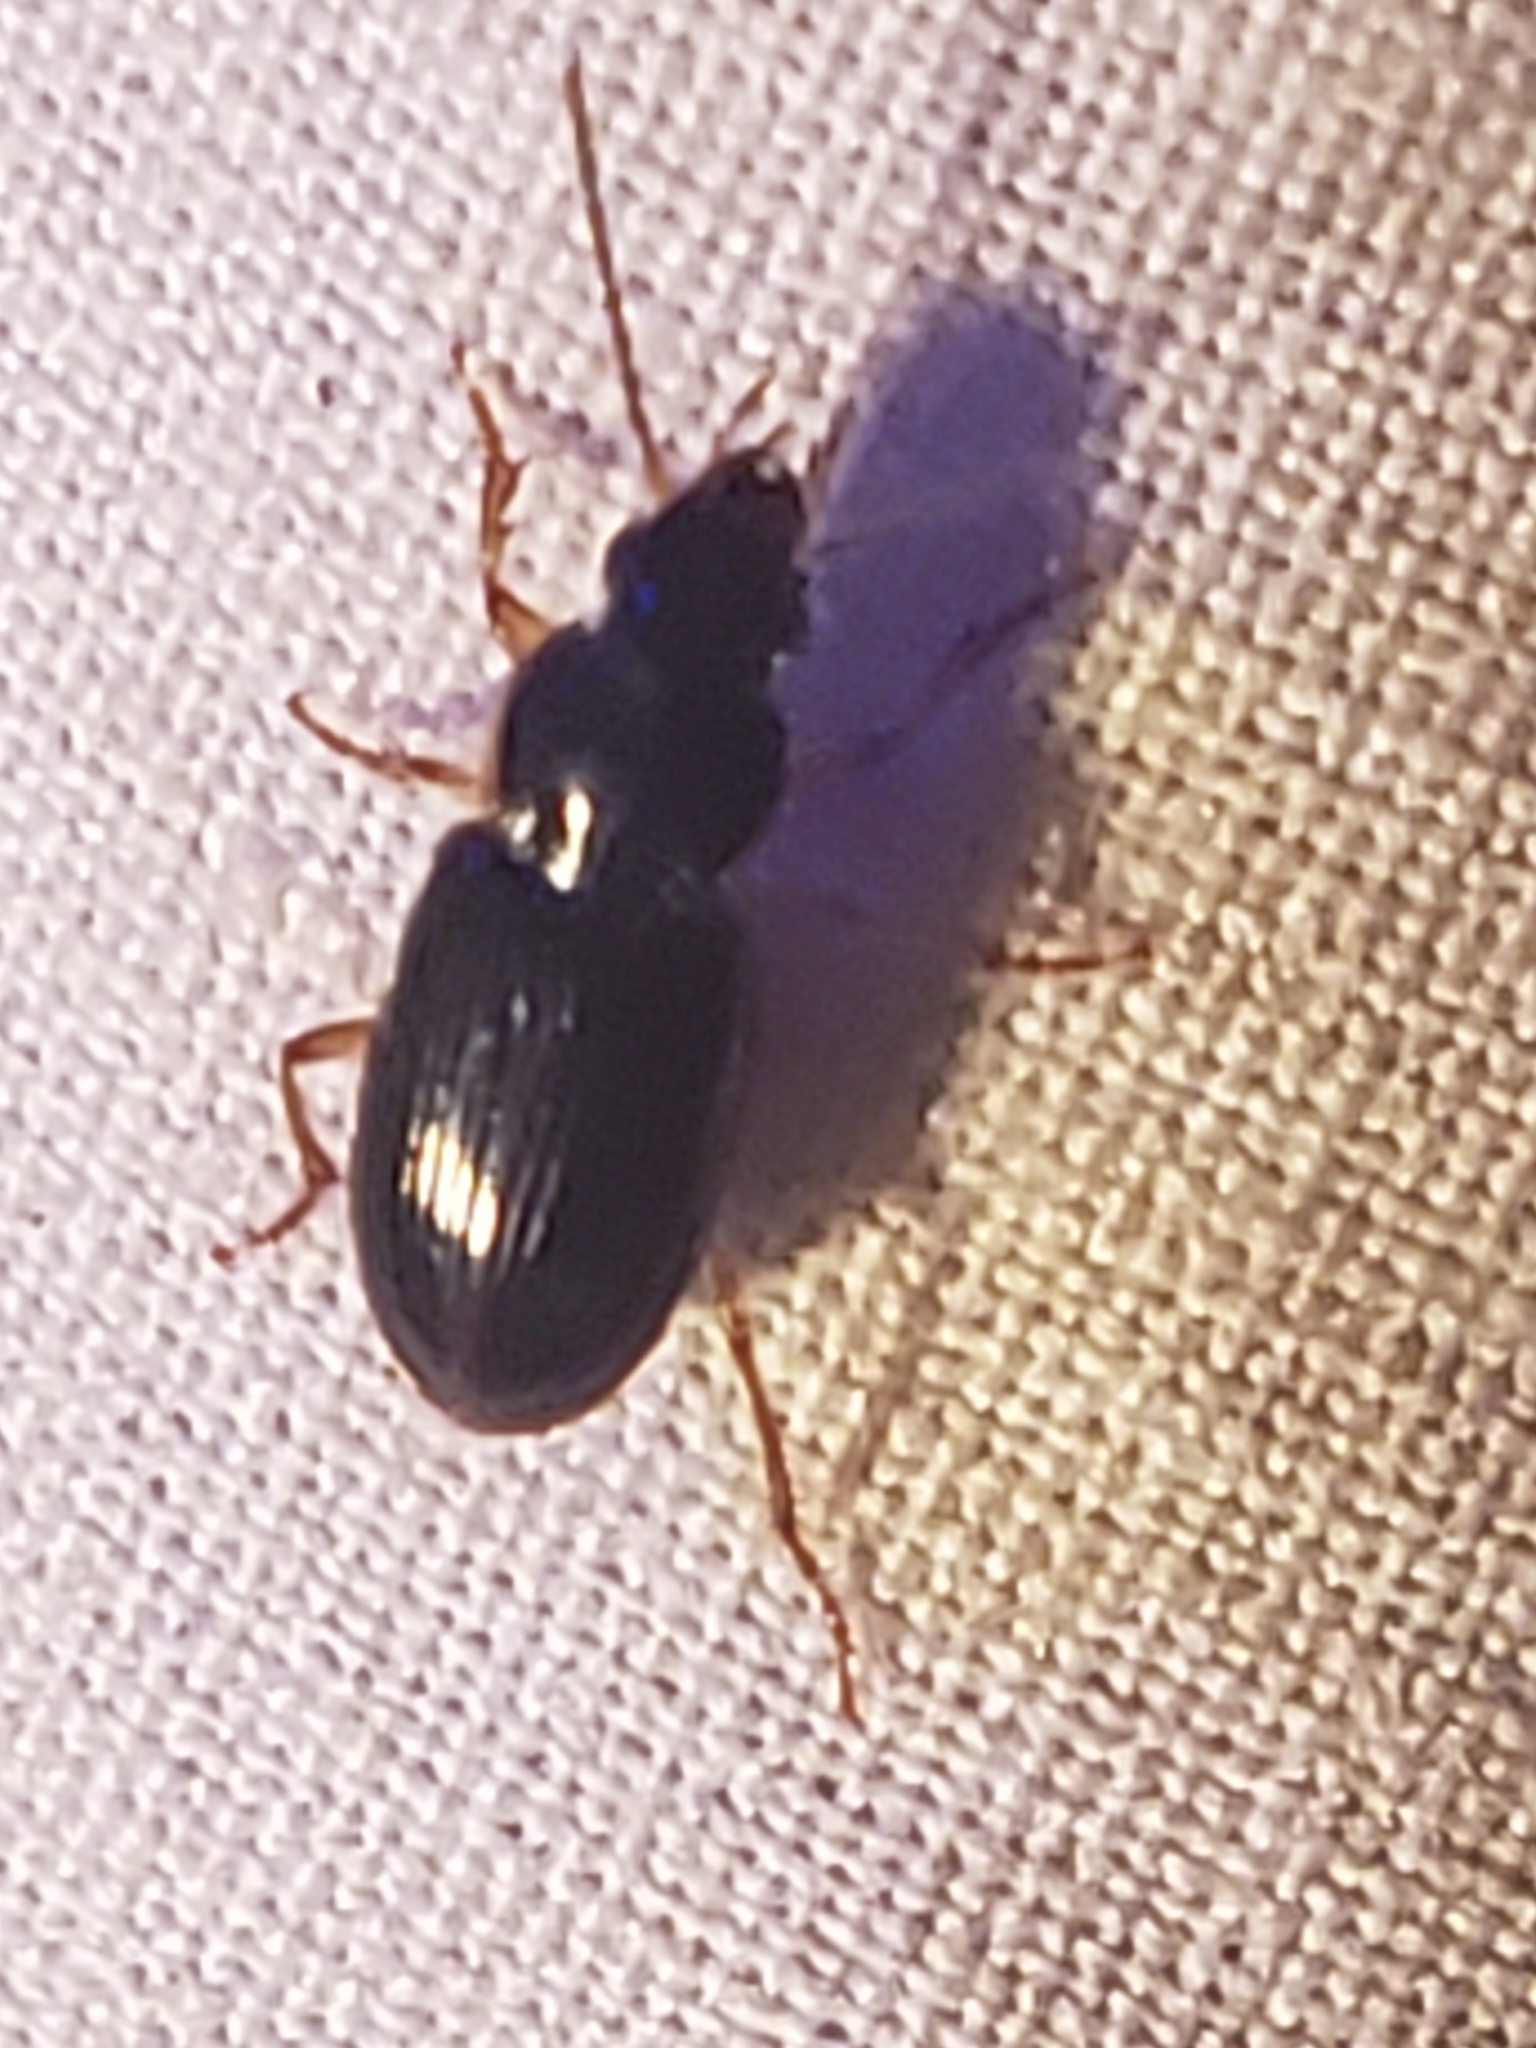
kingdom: Animalia
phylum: Arthropoda
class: Insecta
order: Coleoptera
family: Carabidae
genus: Stenolophus
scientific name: Stenolophus ochropezus
